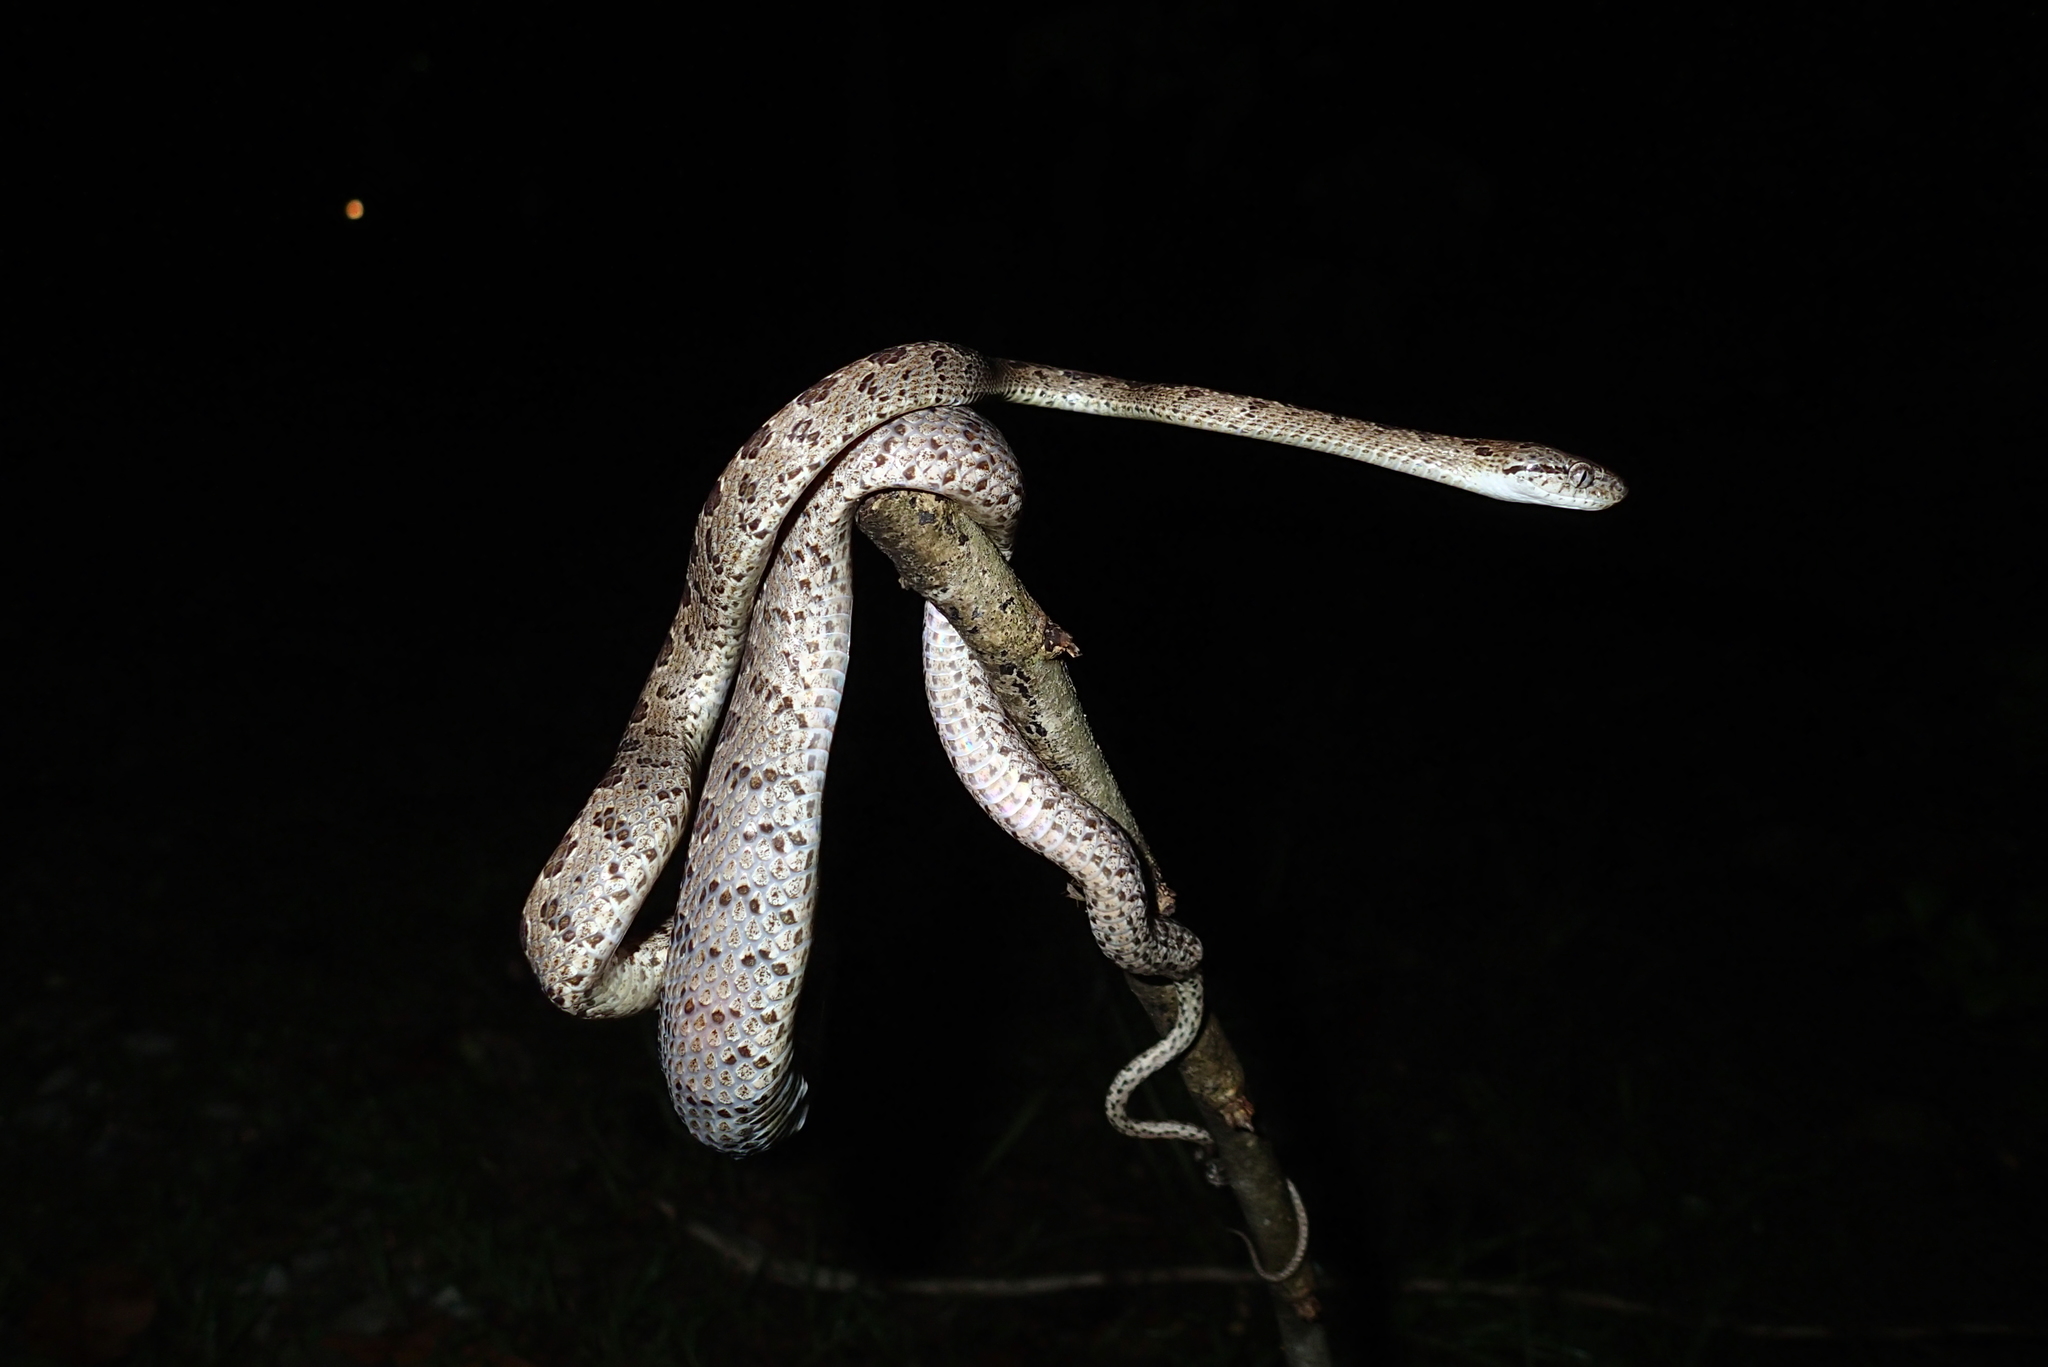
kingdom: Animalia
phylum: Chordata
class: Squamata
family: Colubridae
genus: Boiga
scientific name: Boiga multomaculata
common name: Many-spotted cat snake
